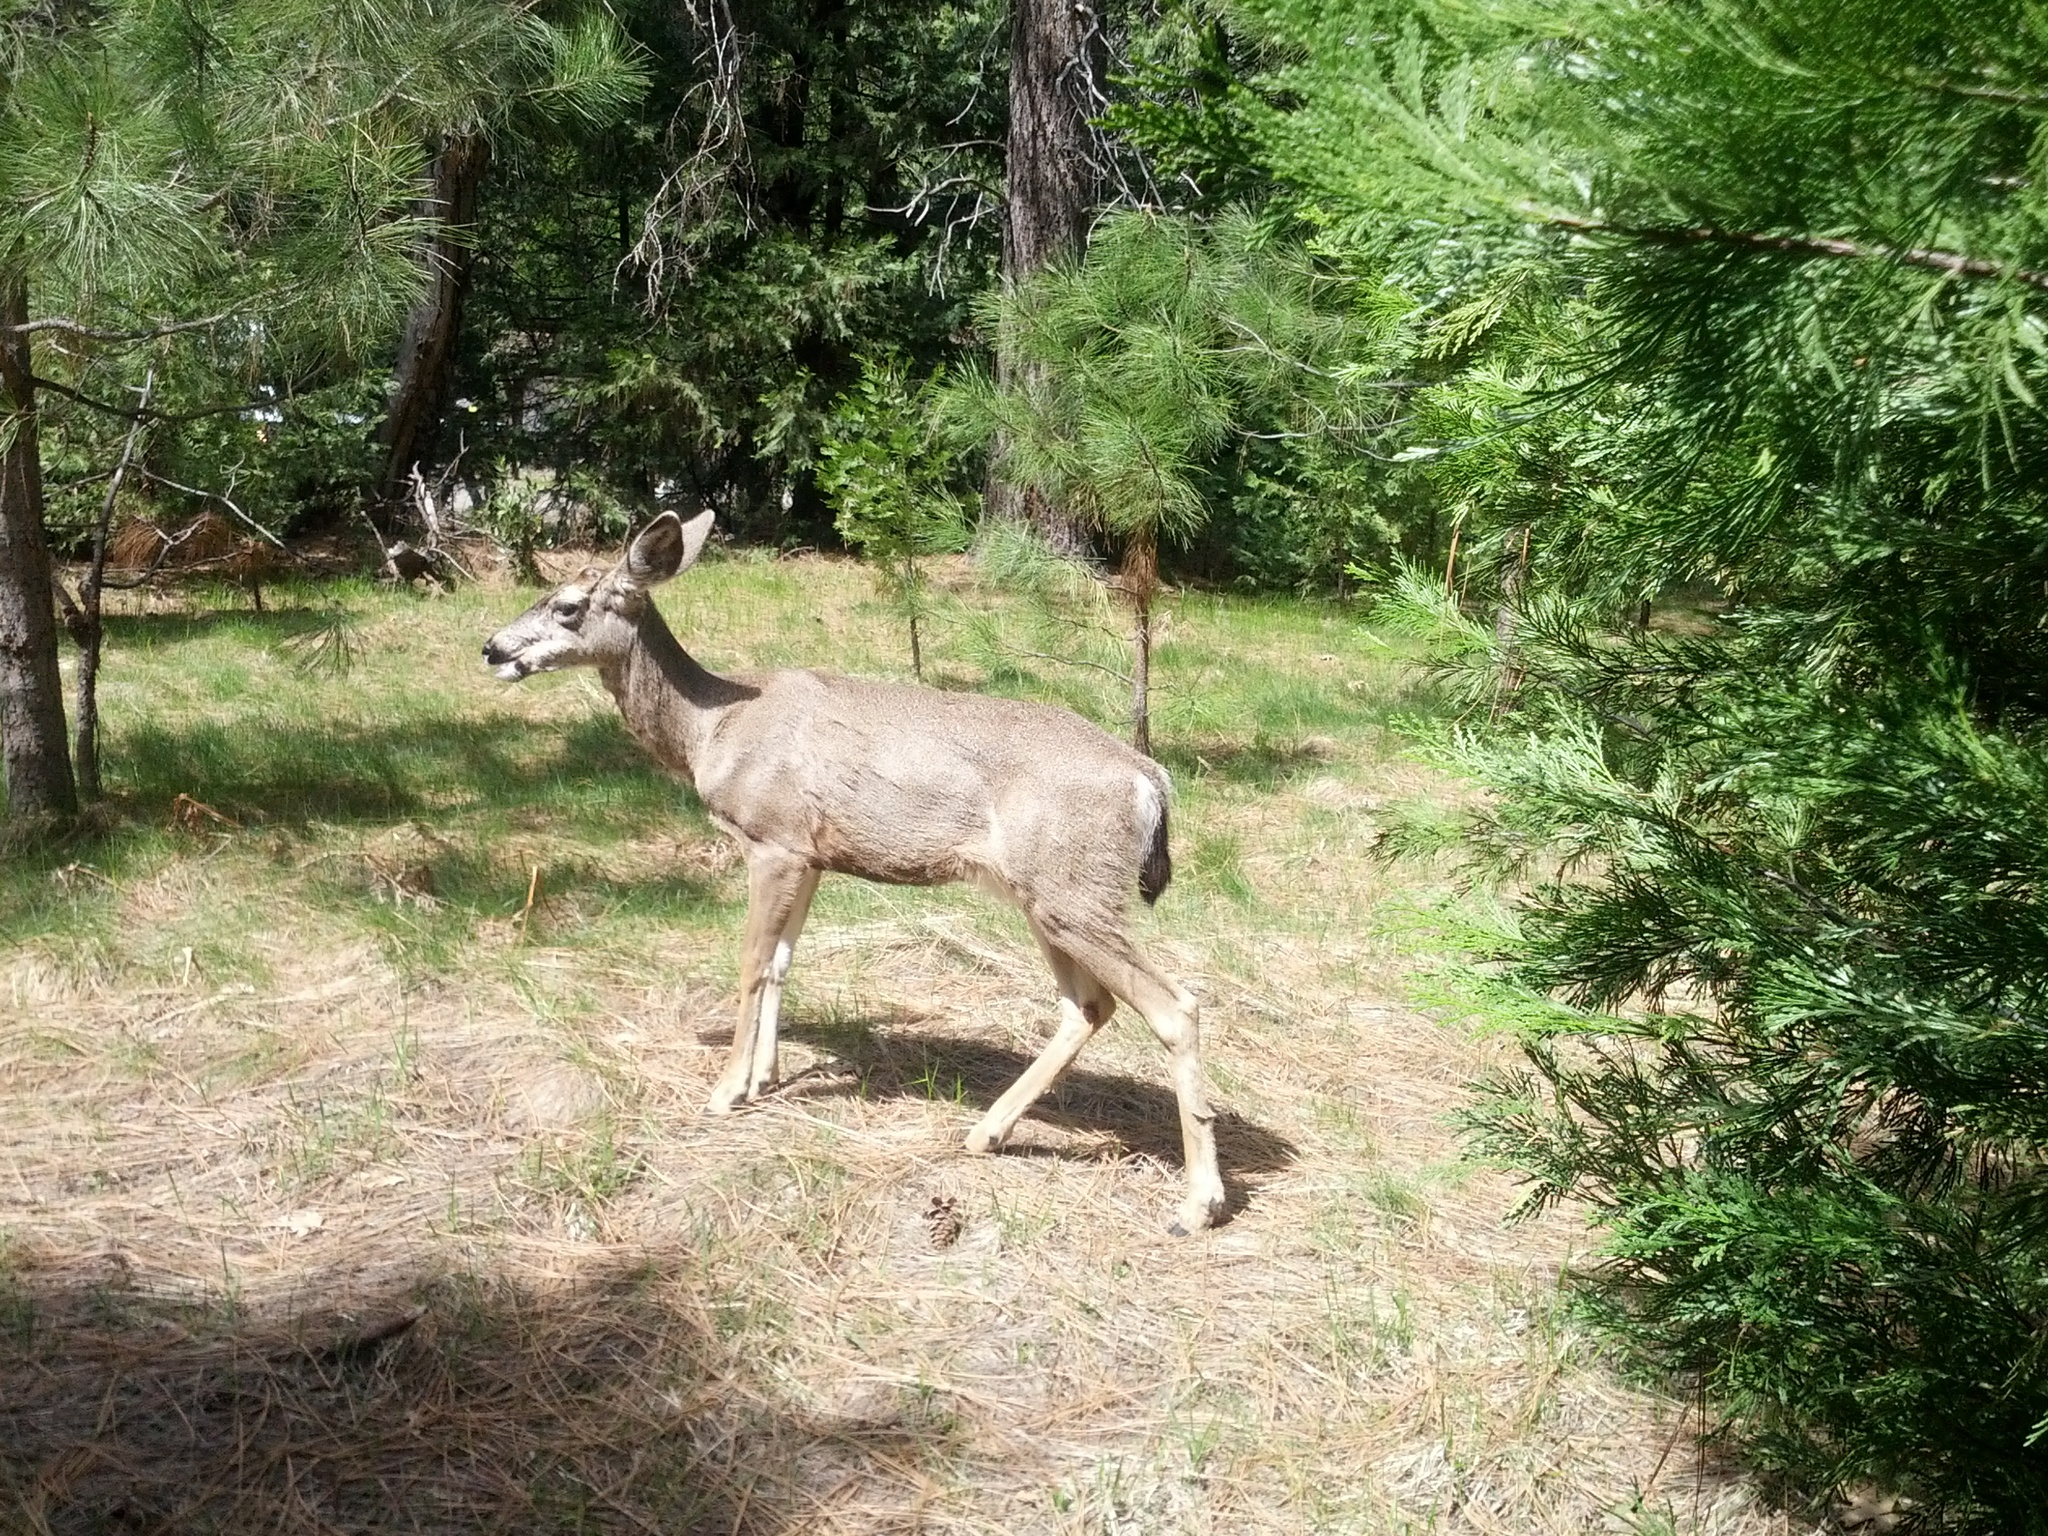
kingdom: Animalia
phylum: Chordata
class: Mammalia
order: Artiodactyla
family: Cervidae
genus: Odocoileus
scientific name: Odocoileus hemionus
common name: Mule deer
